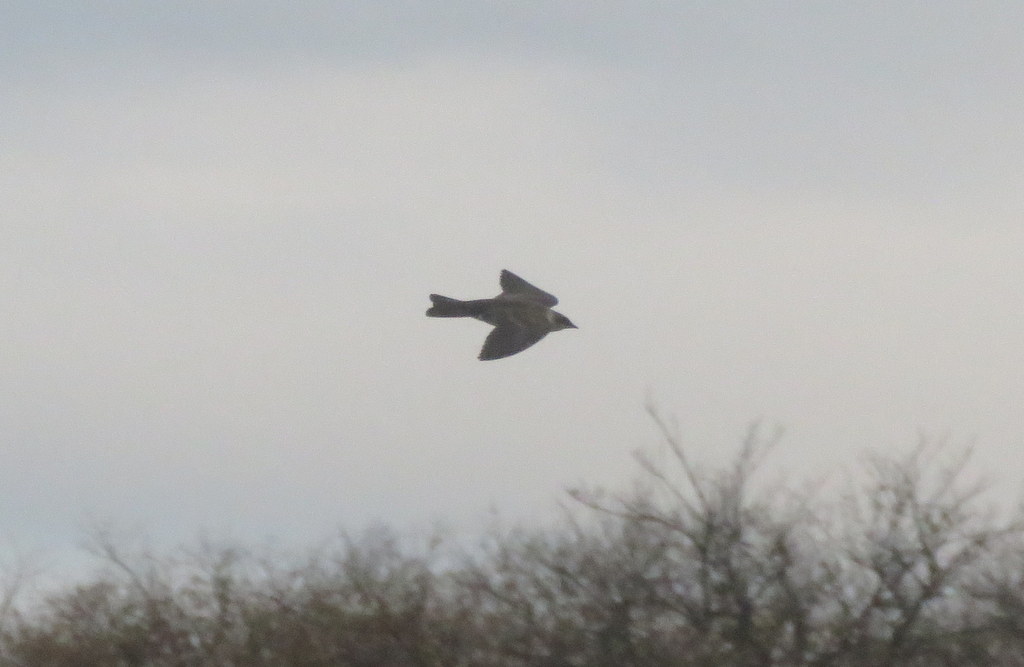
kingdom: Animalia
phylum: Chordata
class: Aves
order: Passeriformes
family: Hirundinidae
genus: Progne
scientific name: Progne tapera
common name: Brown-chested martin
